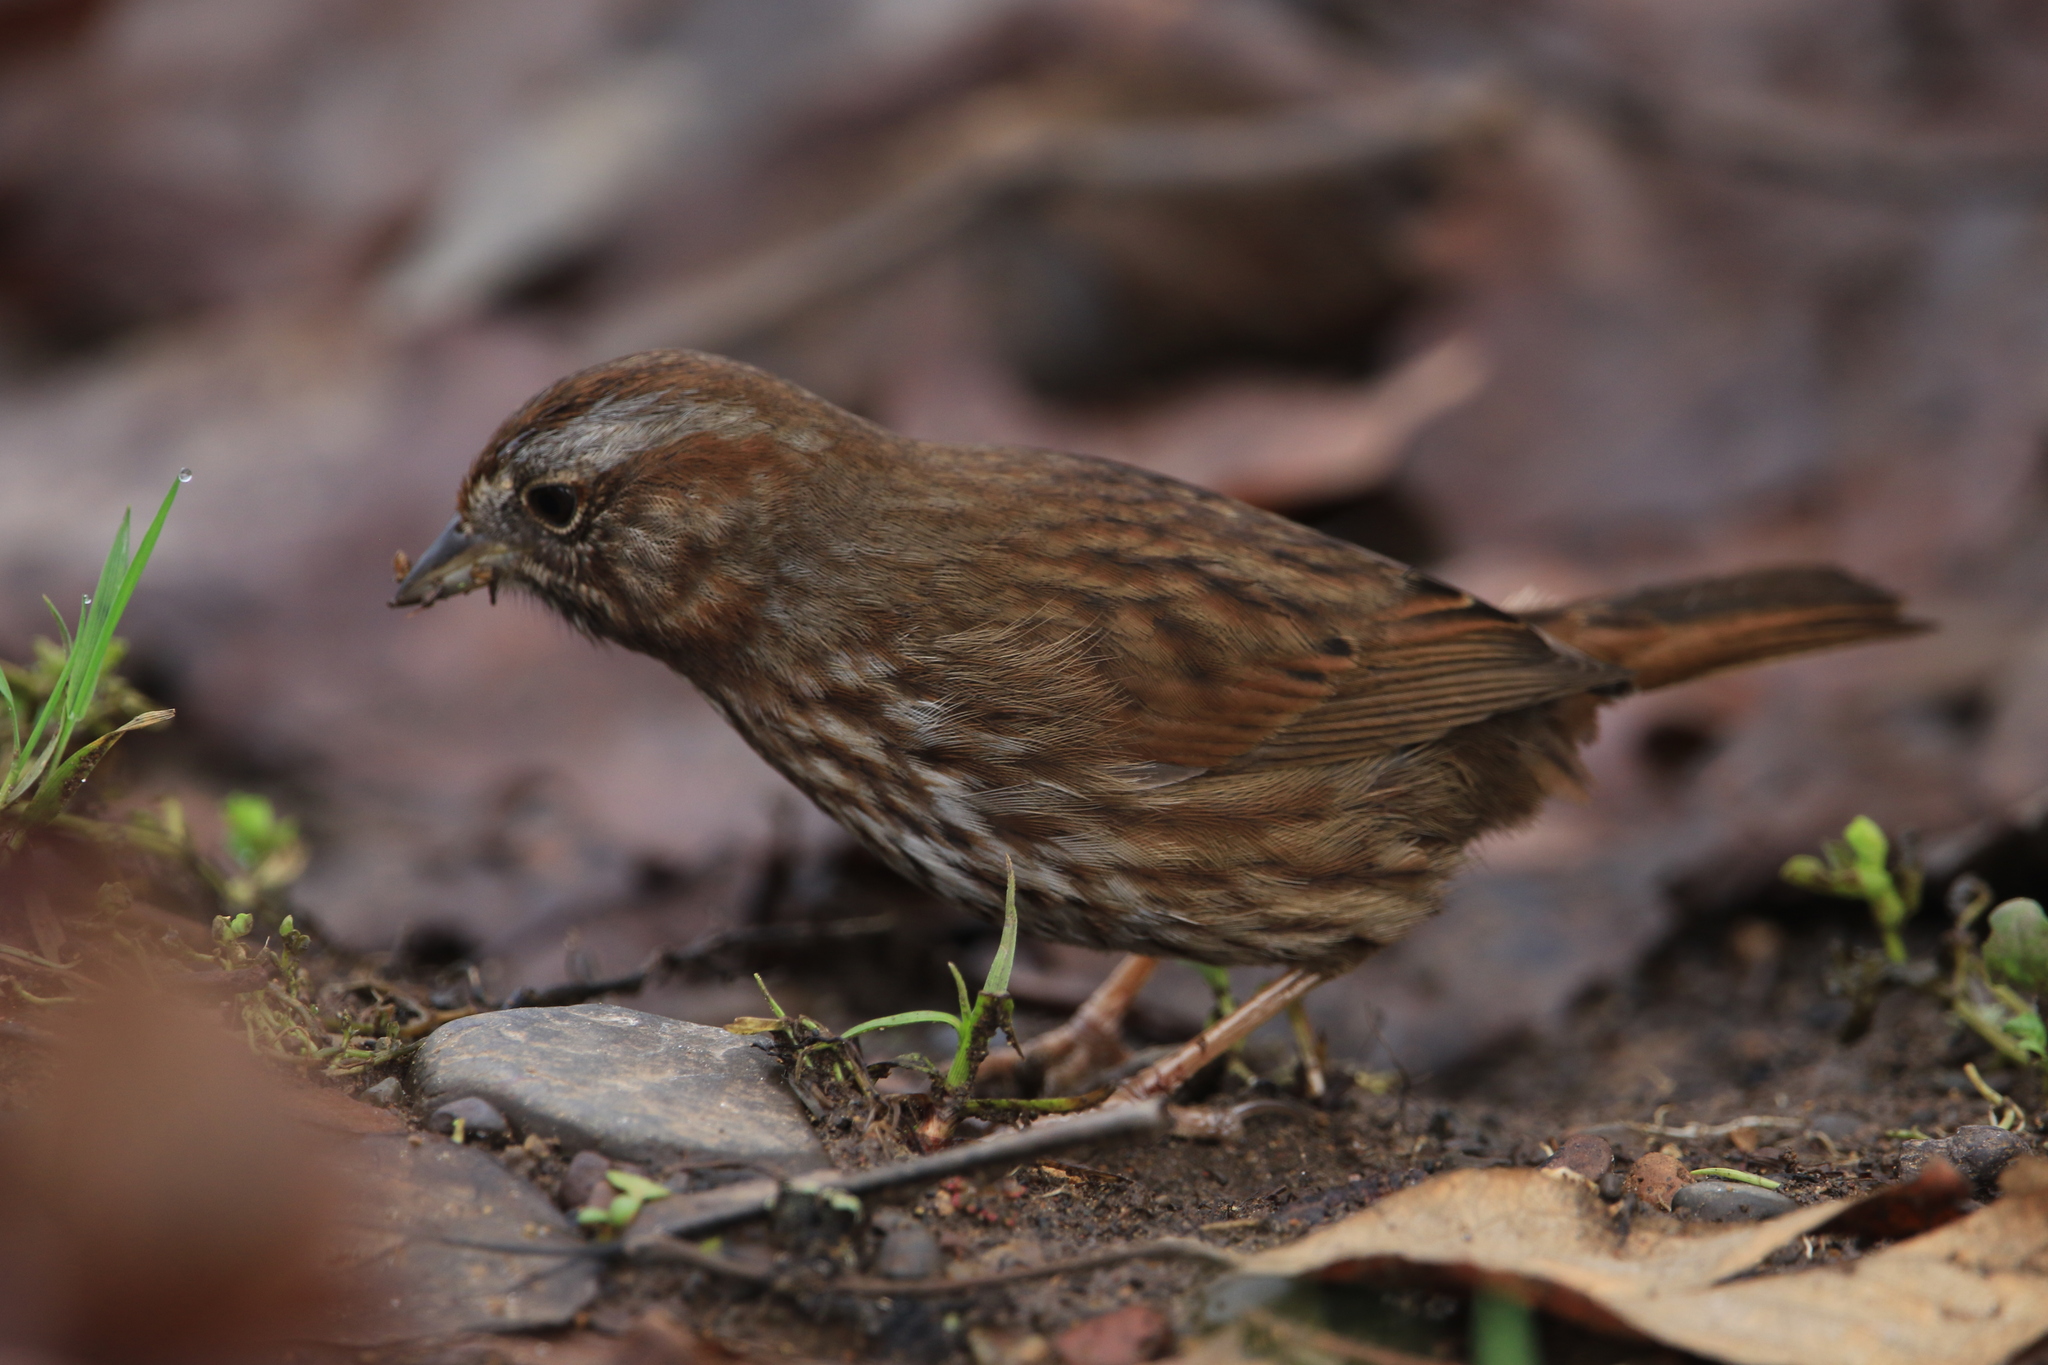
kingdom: Animalia
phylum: Chordata
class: Aves
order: Passeriformes
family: Passerellidae
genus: Melospiza
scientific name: Melospiza melodia
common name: Song sparrow
